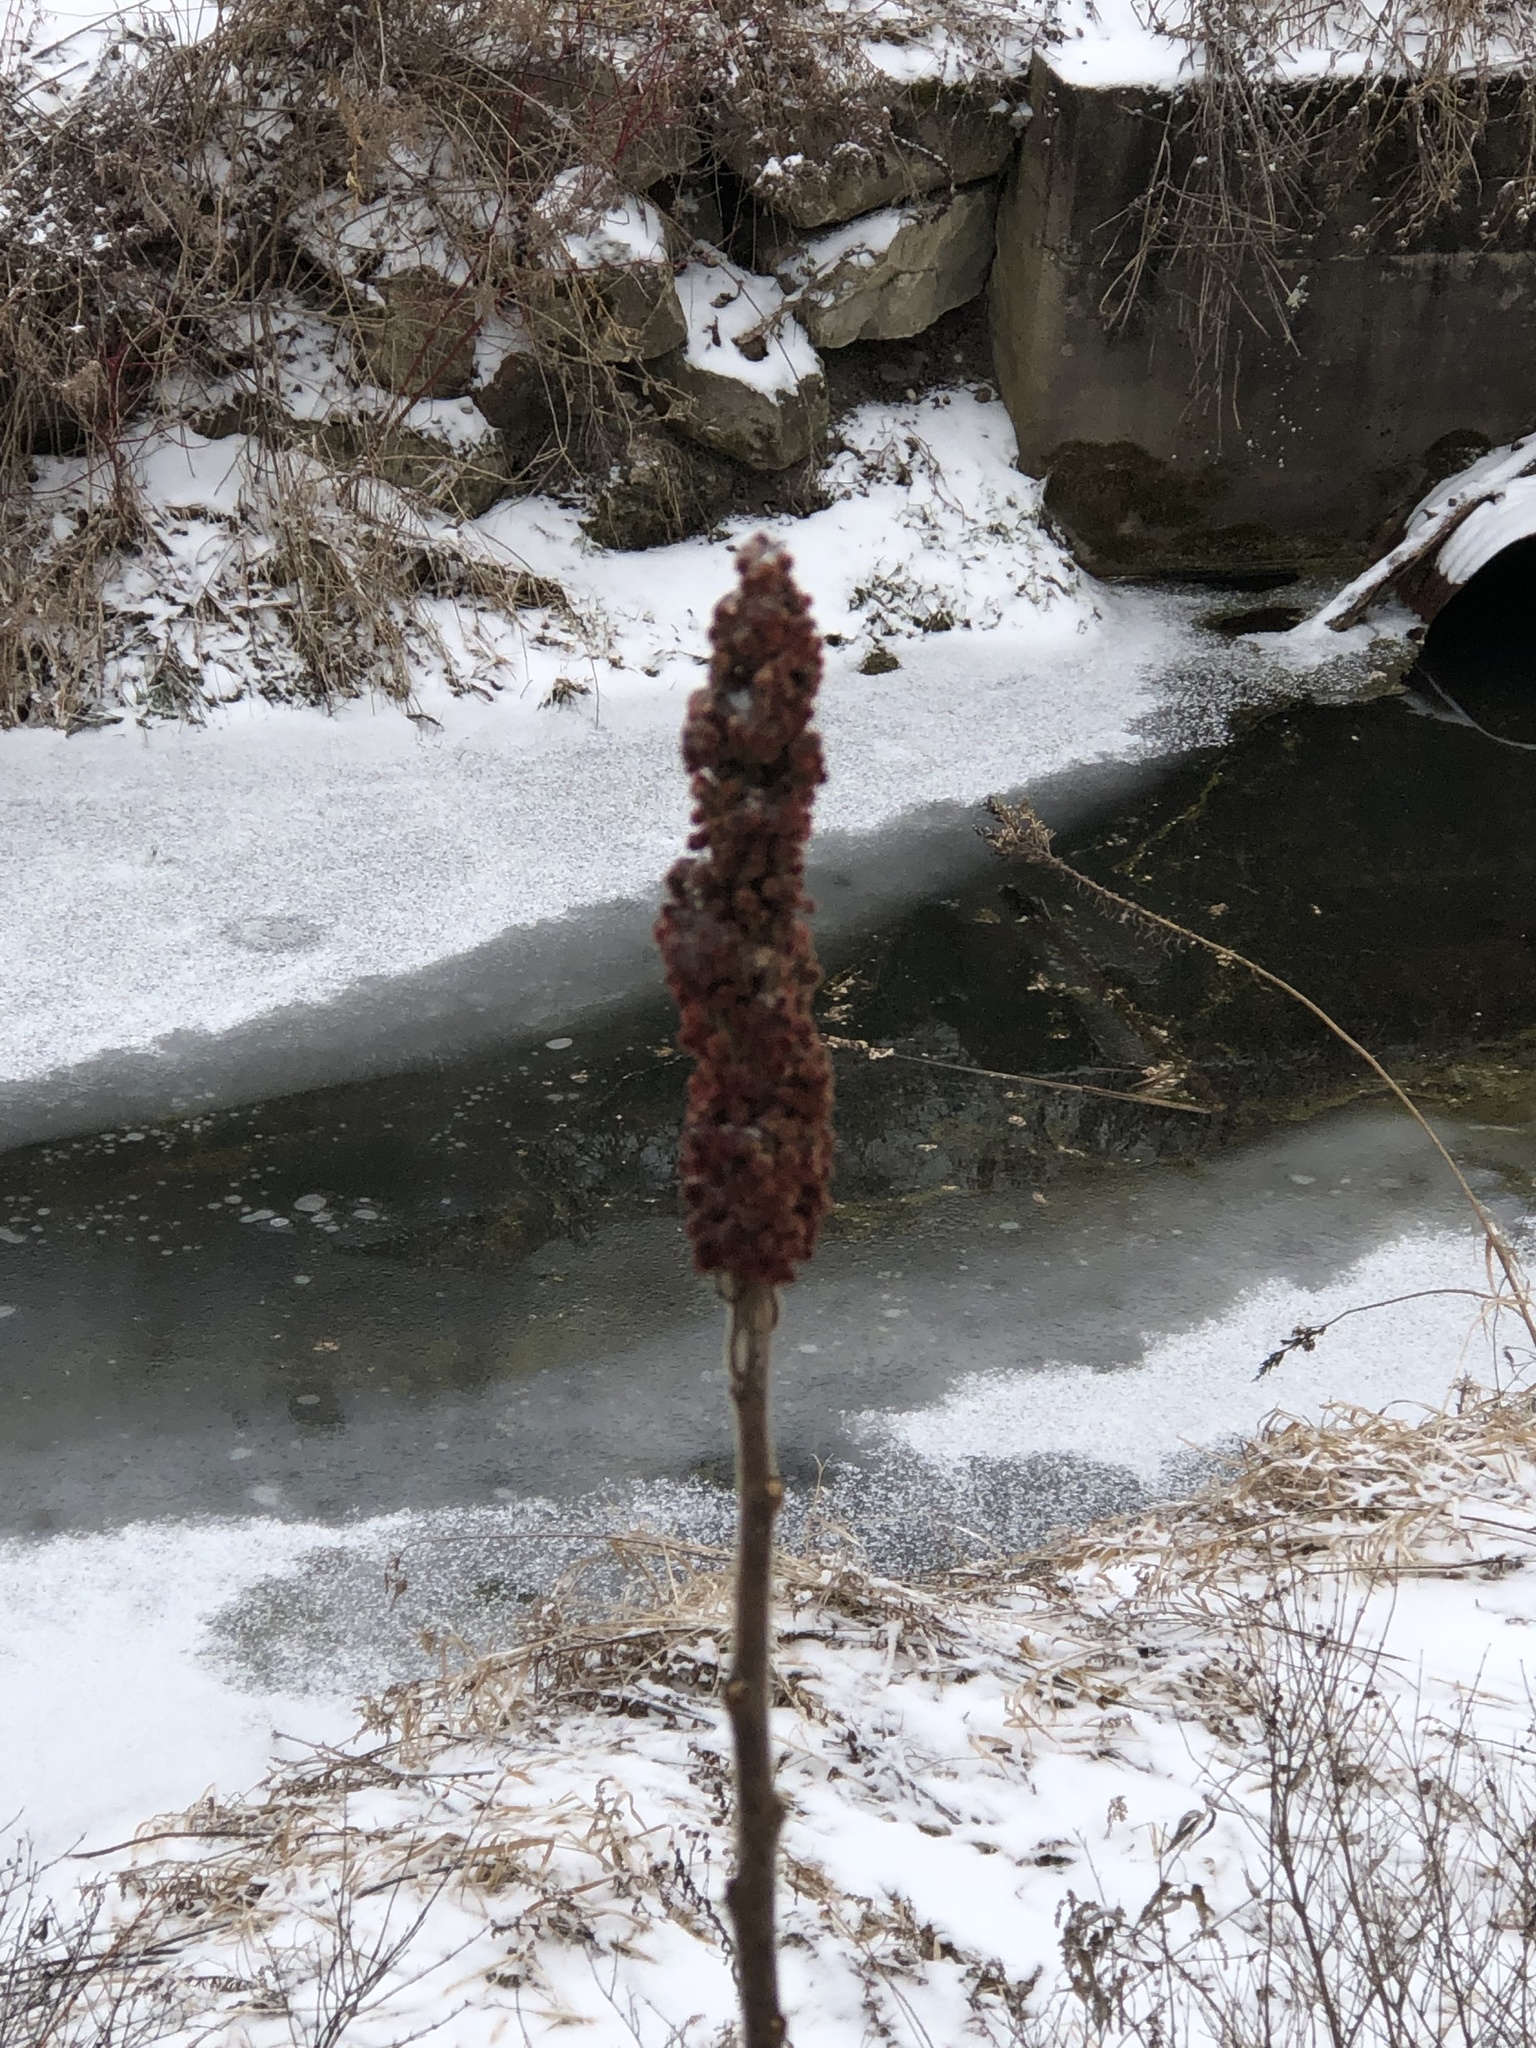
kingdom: Plantae
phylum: Tracheophyta
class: Magnoliopsida
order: Sapindales
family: Anacardiaceae
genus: Rhus
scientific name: Rhus typhina
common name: Staghorn sumac
